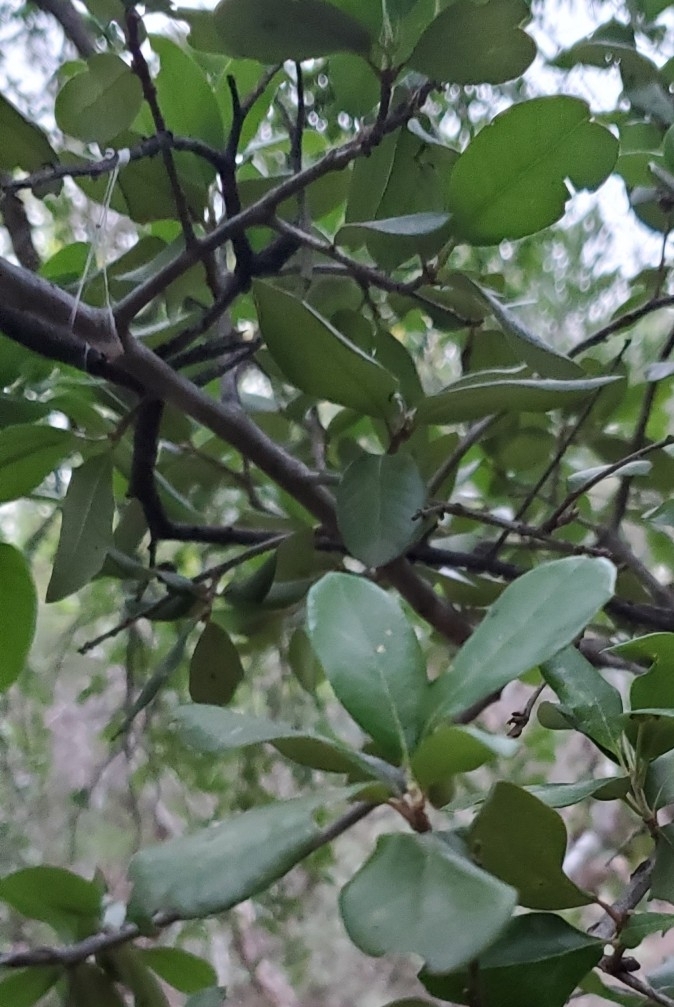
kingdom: Plantae
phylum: Tracheophyta
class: Magnoliopsida
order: Fagales
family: Fagaceae
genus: Quercus
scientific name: Quercus fusiformis
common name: Texas live oak
